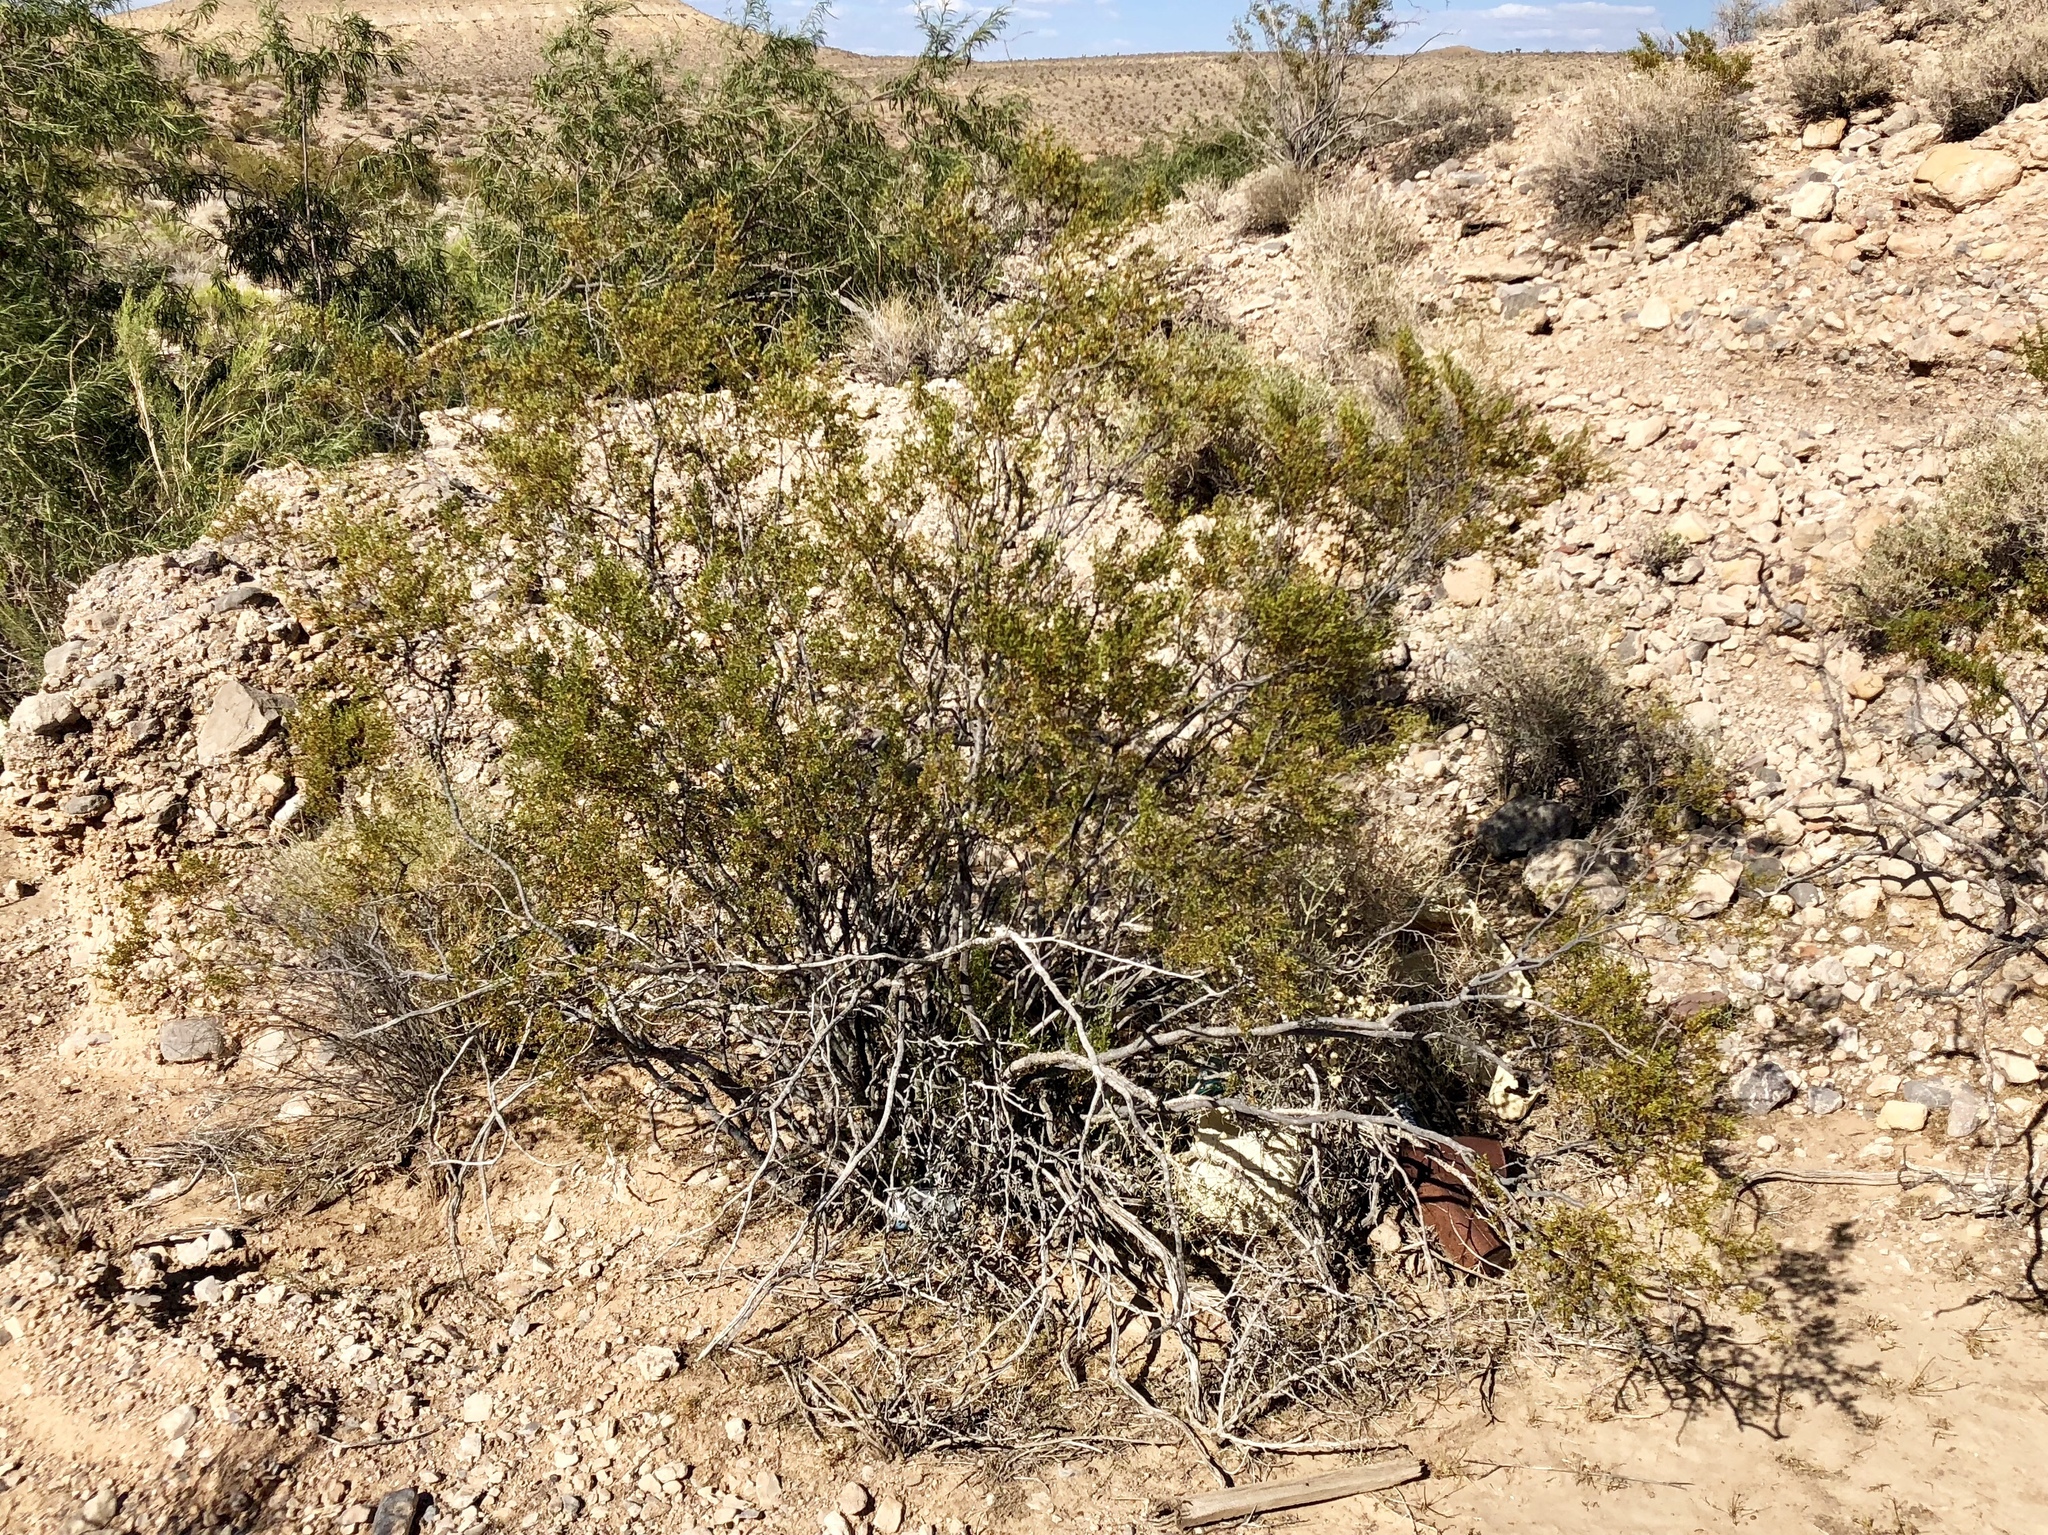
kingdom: Plantae
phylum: Tracheophyta
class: Magnoliopsida
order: Zygophyllales
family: Zygophyllaceae
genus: Larrea
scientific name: Larrea tridentata
